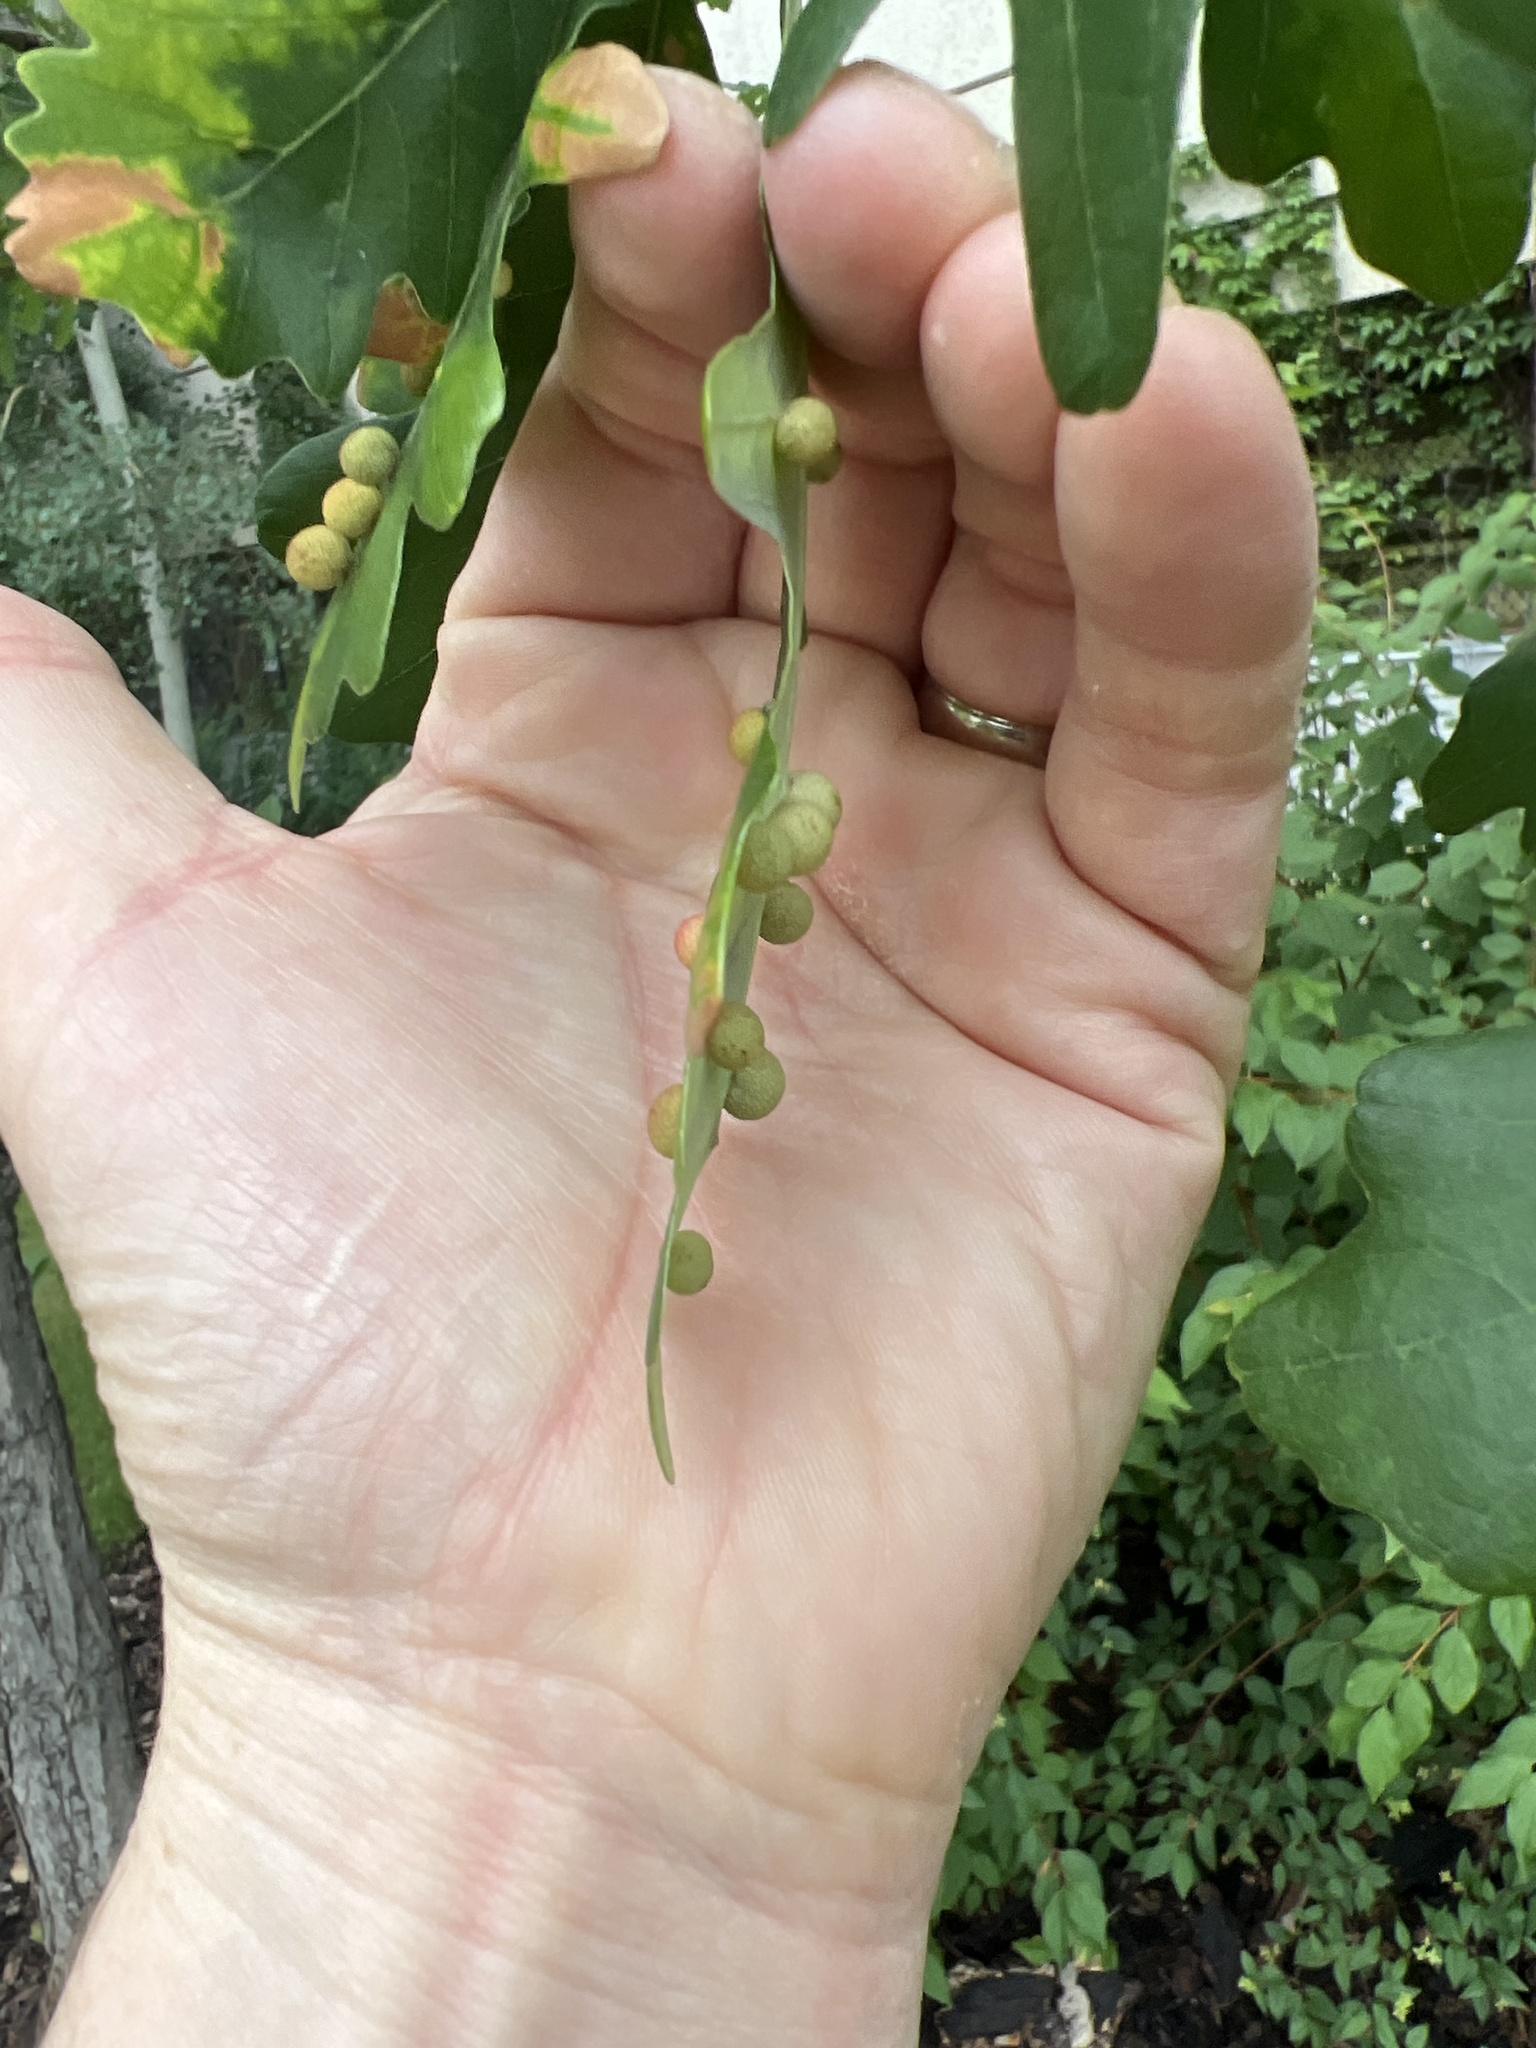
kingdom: Animalia
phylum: Arthropoda
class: Insecta
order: Hymenoptera
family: Cynipidae
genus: Acraspis
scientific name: Acraspis quercushirta
